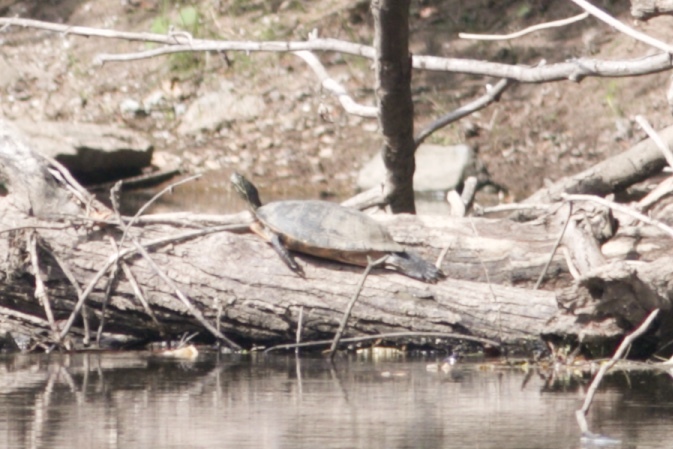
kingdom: Animalia
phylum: Chordata
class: Testudines
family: Emydidae
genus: Pseudemys
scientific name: Pseudemys rubriventris
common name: American red-bellied turtle
